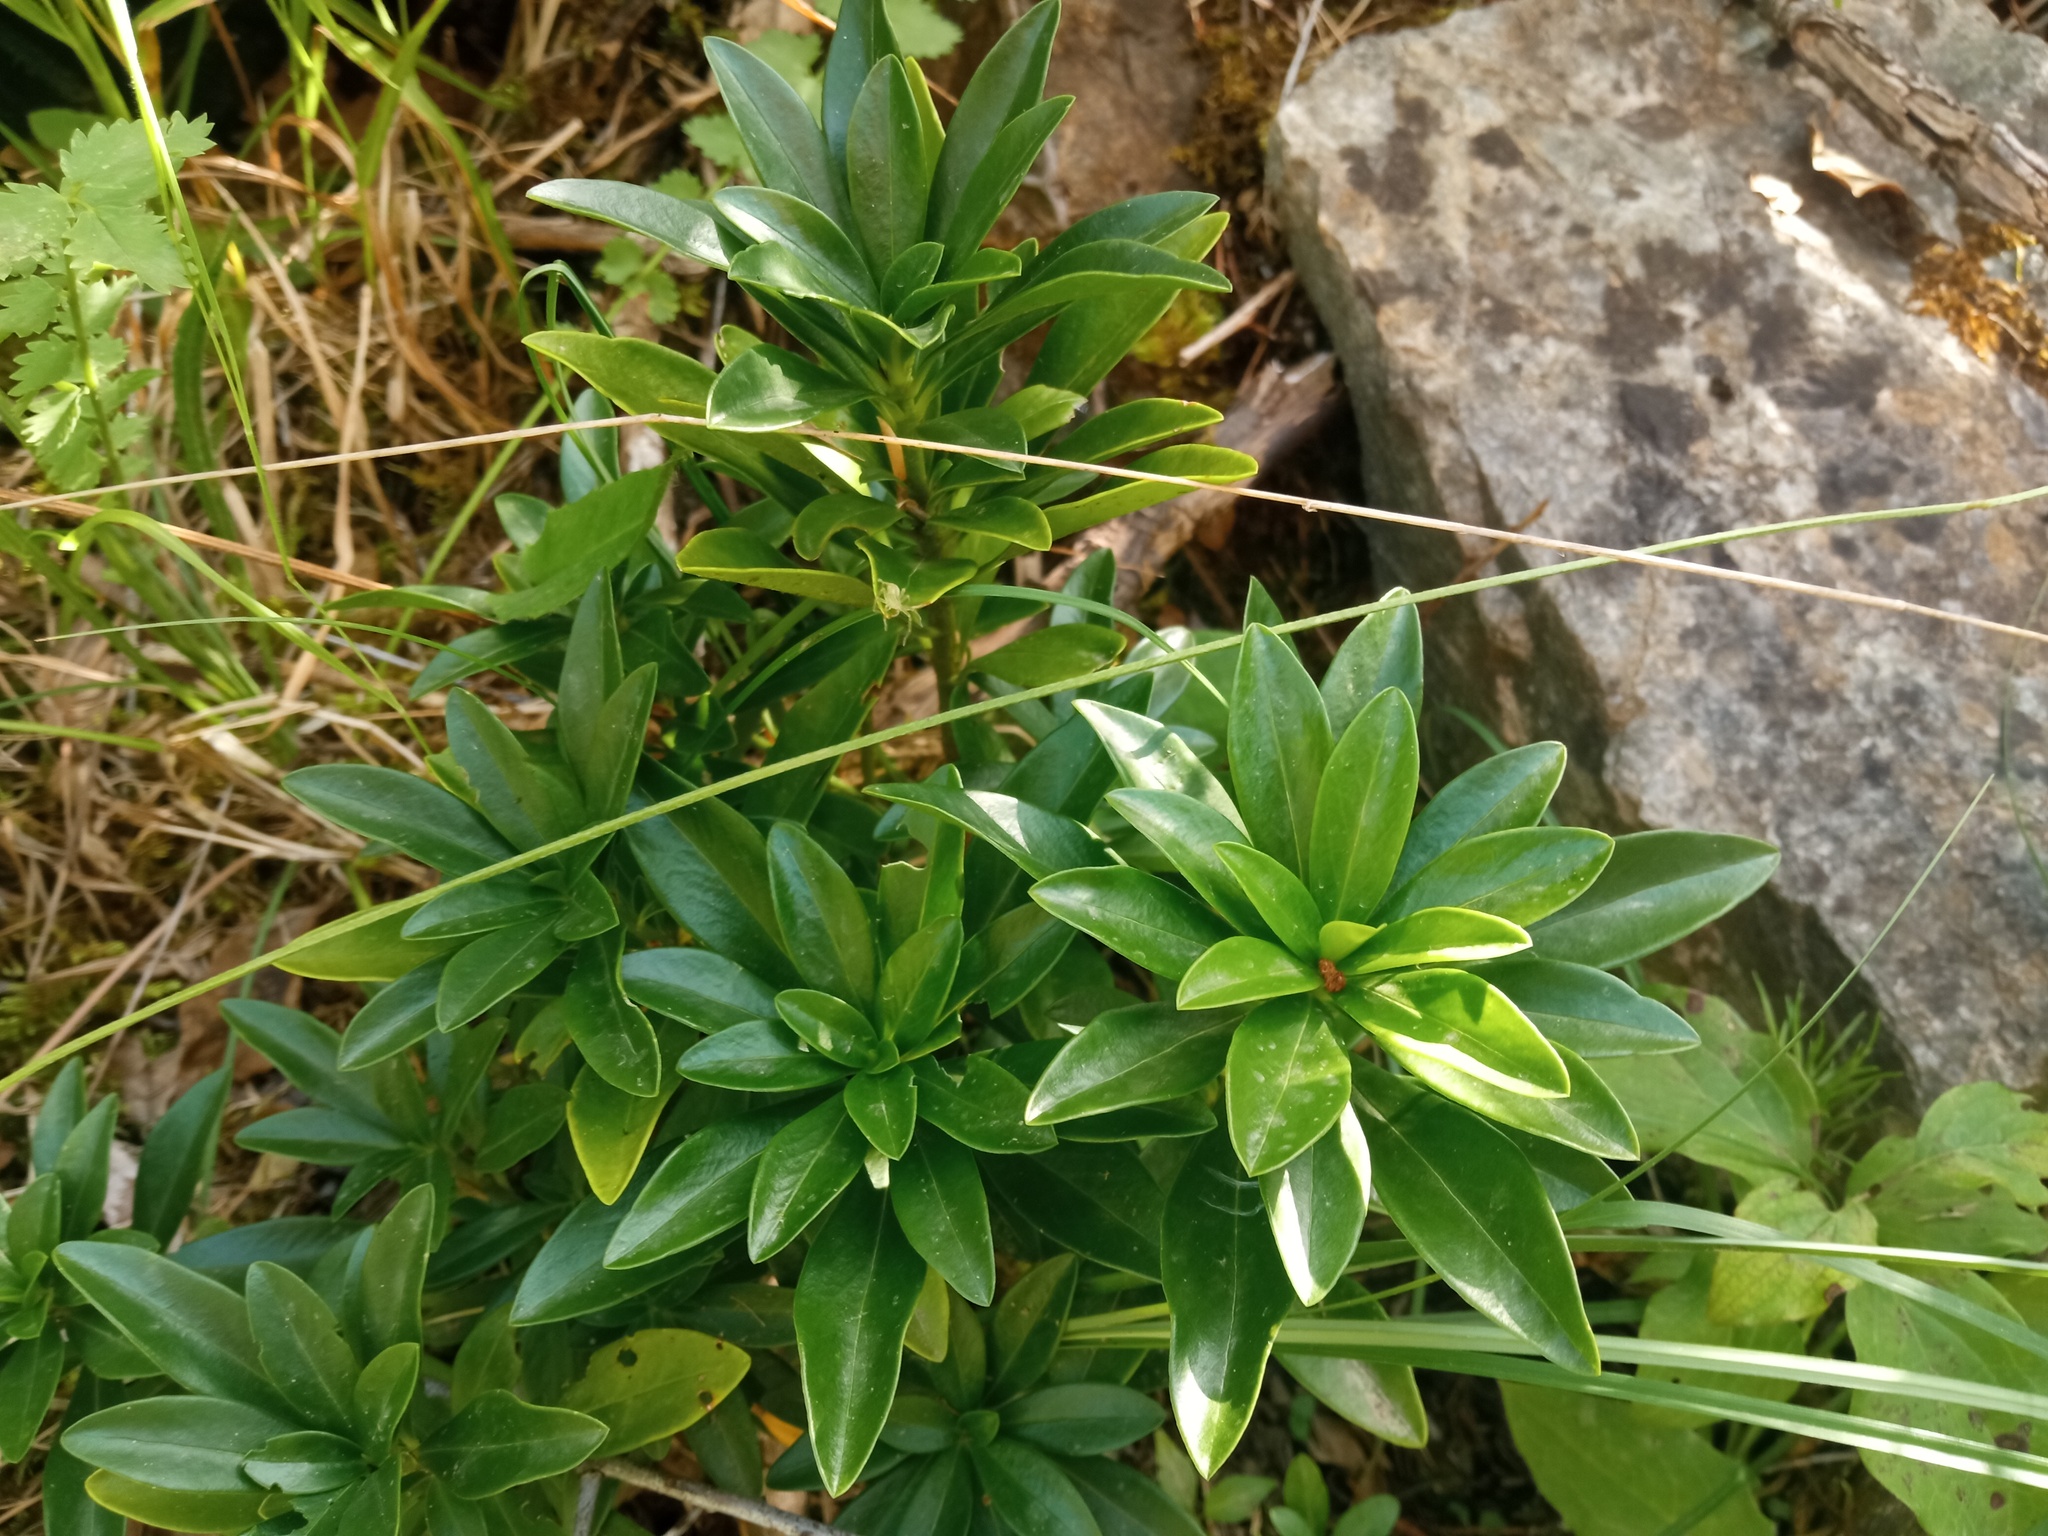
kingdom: Plantae
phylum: Tracheophyta
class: Magnoliopsida
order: Malvales
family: Thymelaeaceae
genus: Daphne
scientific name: Daphne laureola
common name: Spurge-laurel
